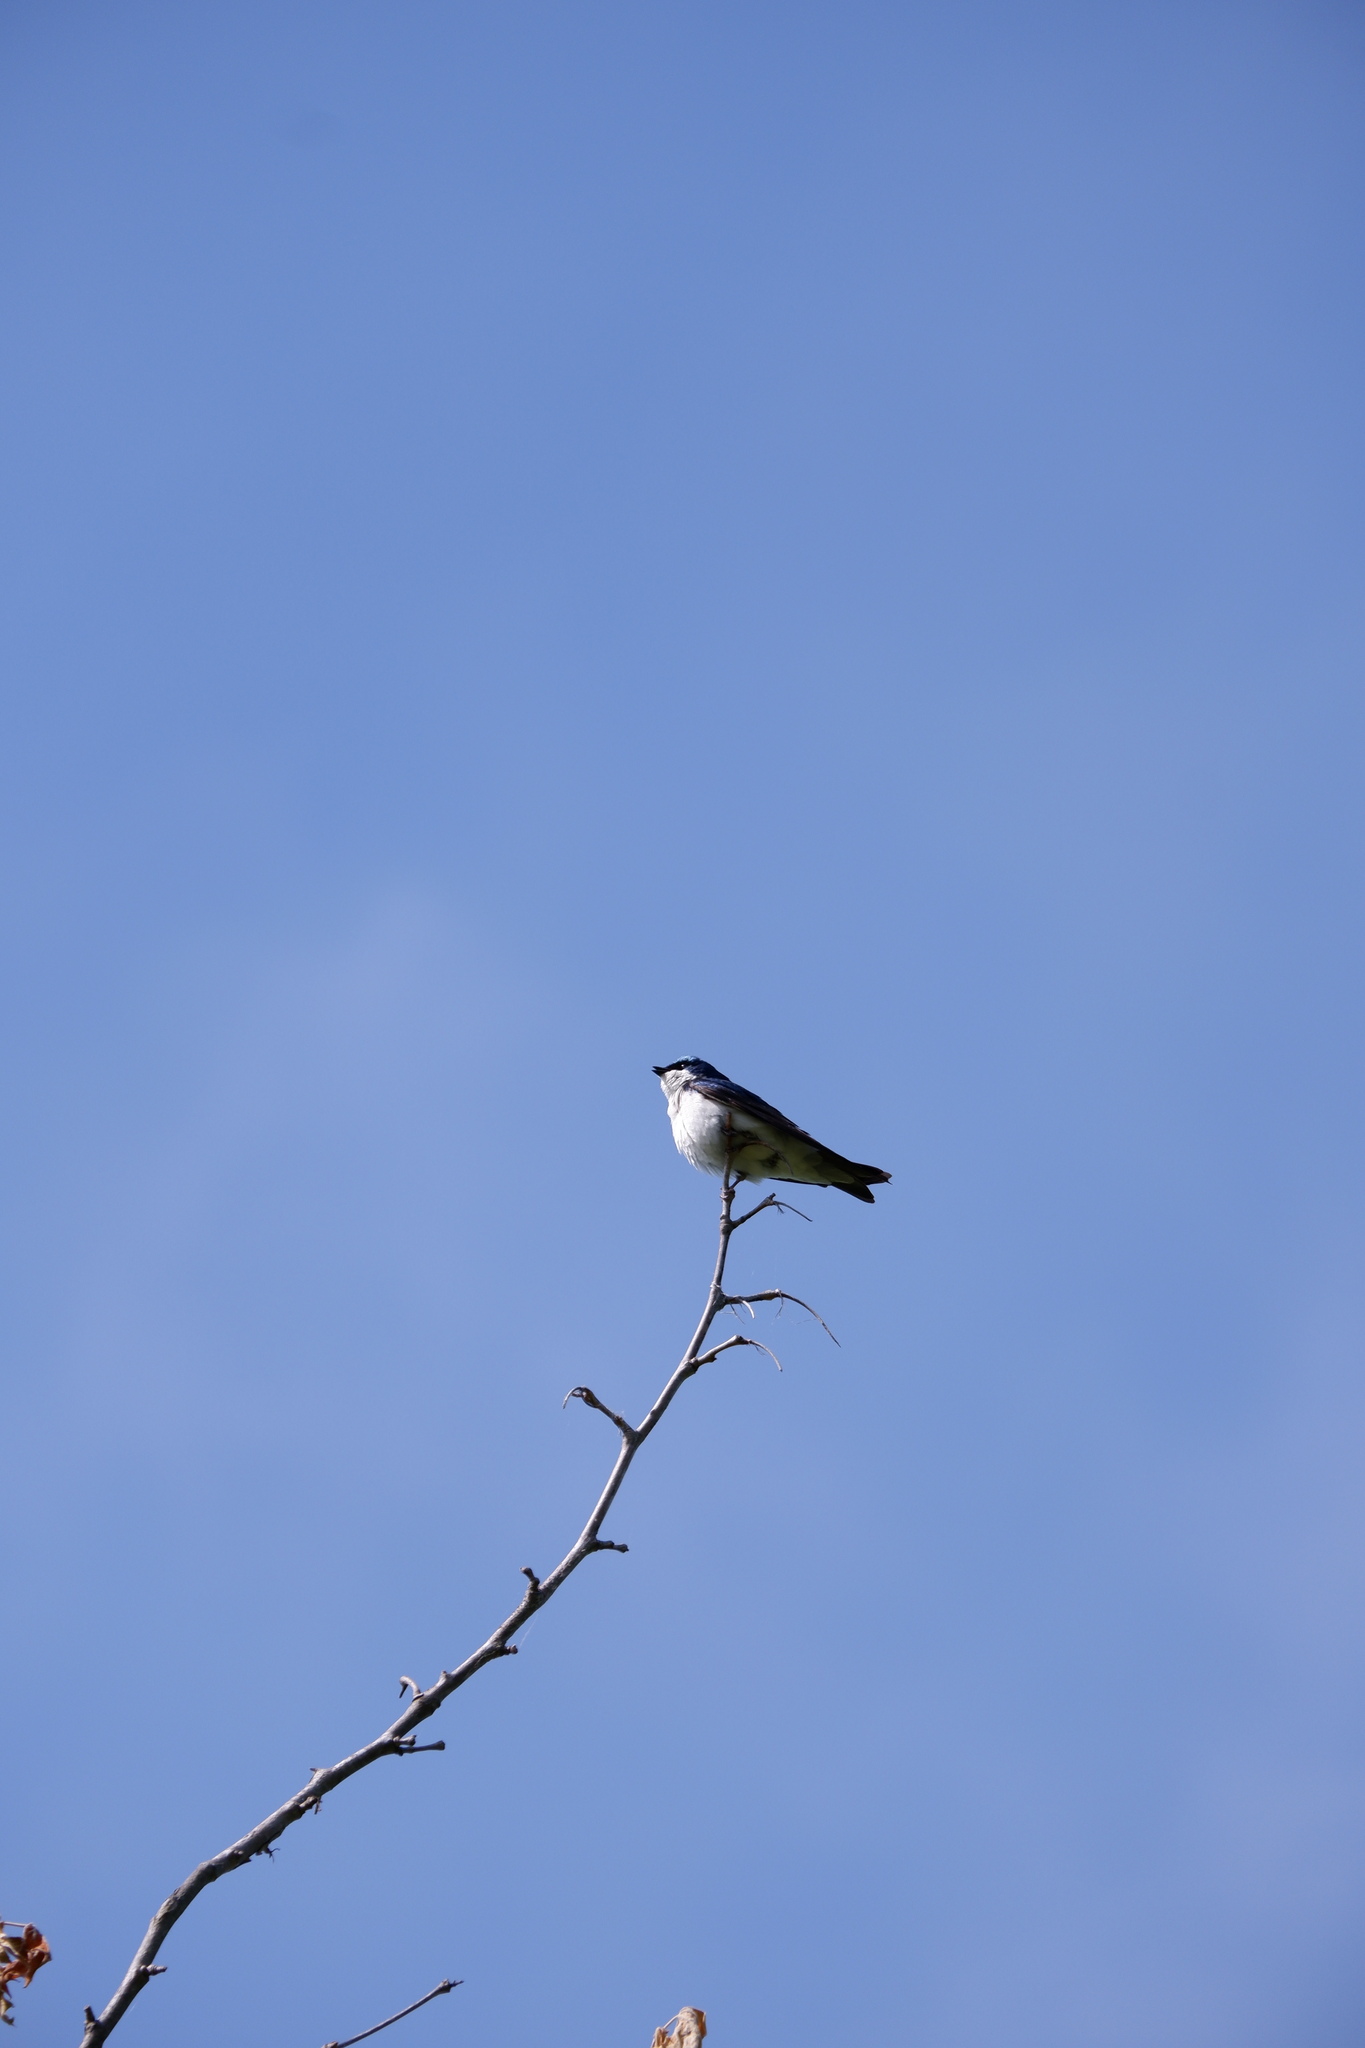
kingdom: Animalia
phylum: Chordata
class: Aves
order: Passeriformes
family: Hirundinidae
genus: Tachycineta
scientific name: Tachycineta bicolor
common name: Tree swallow
